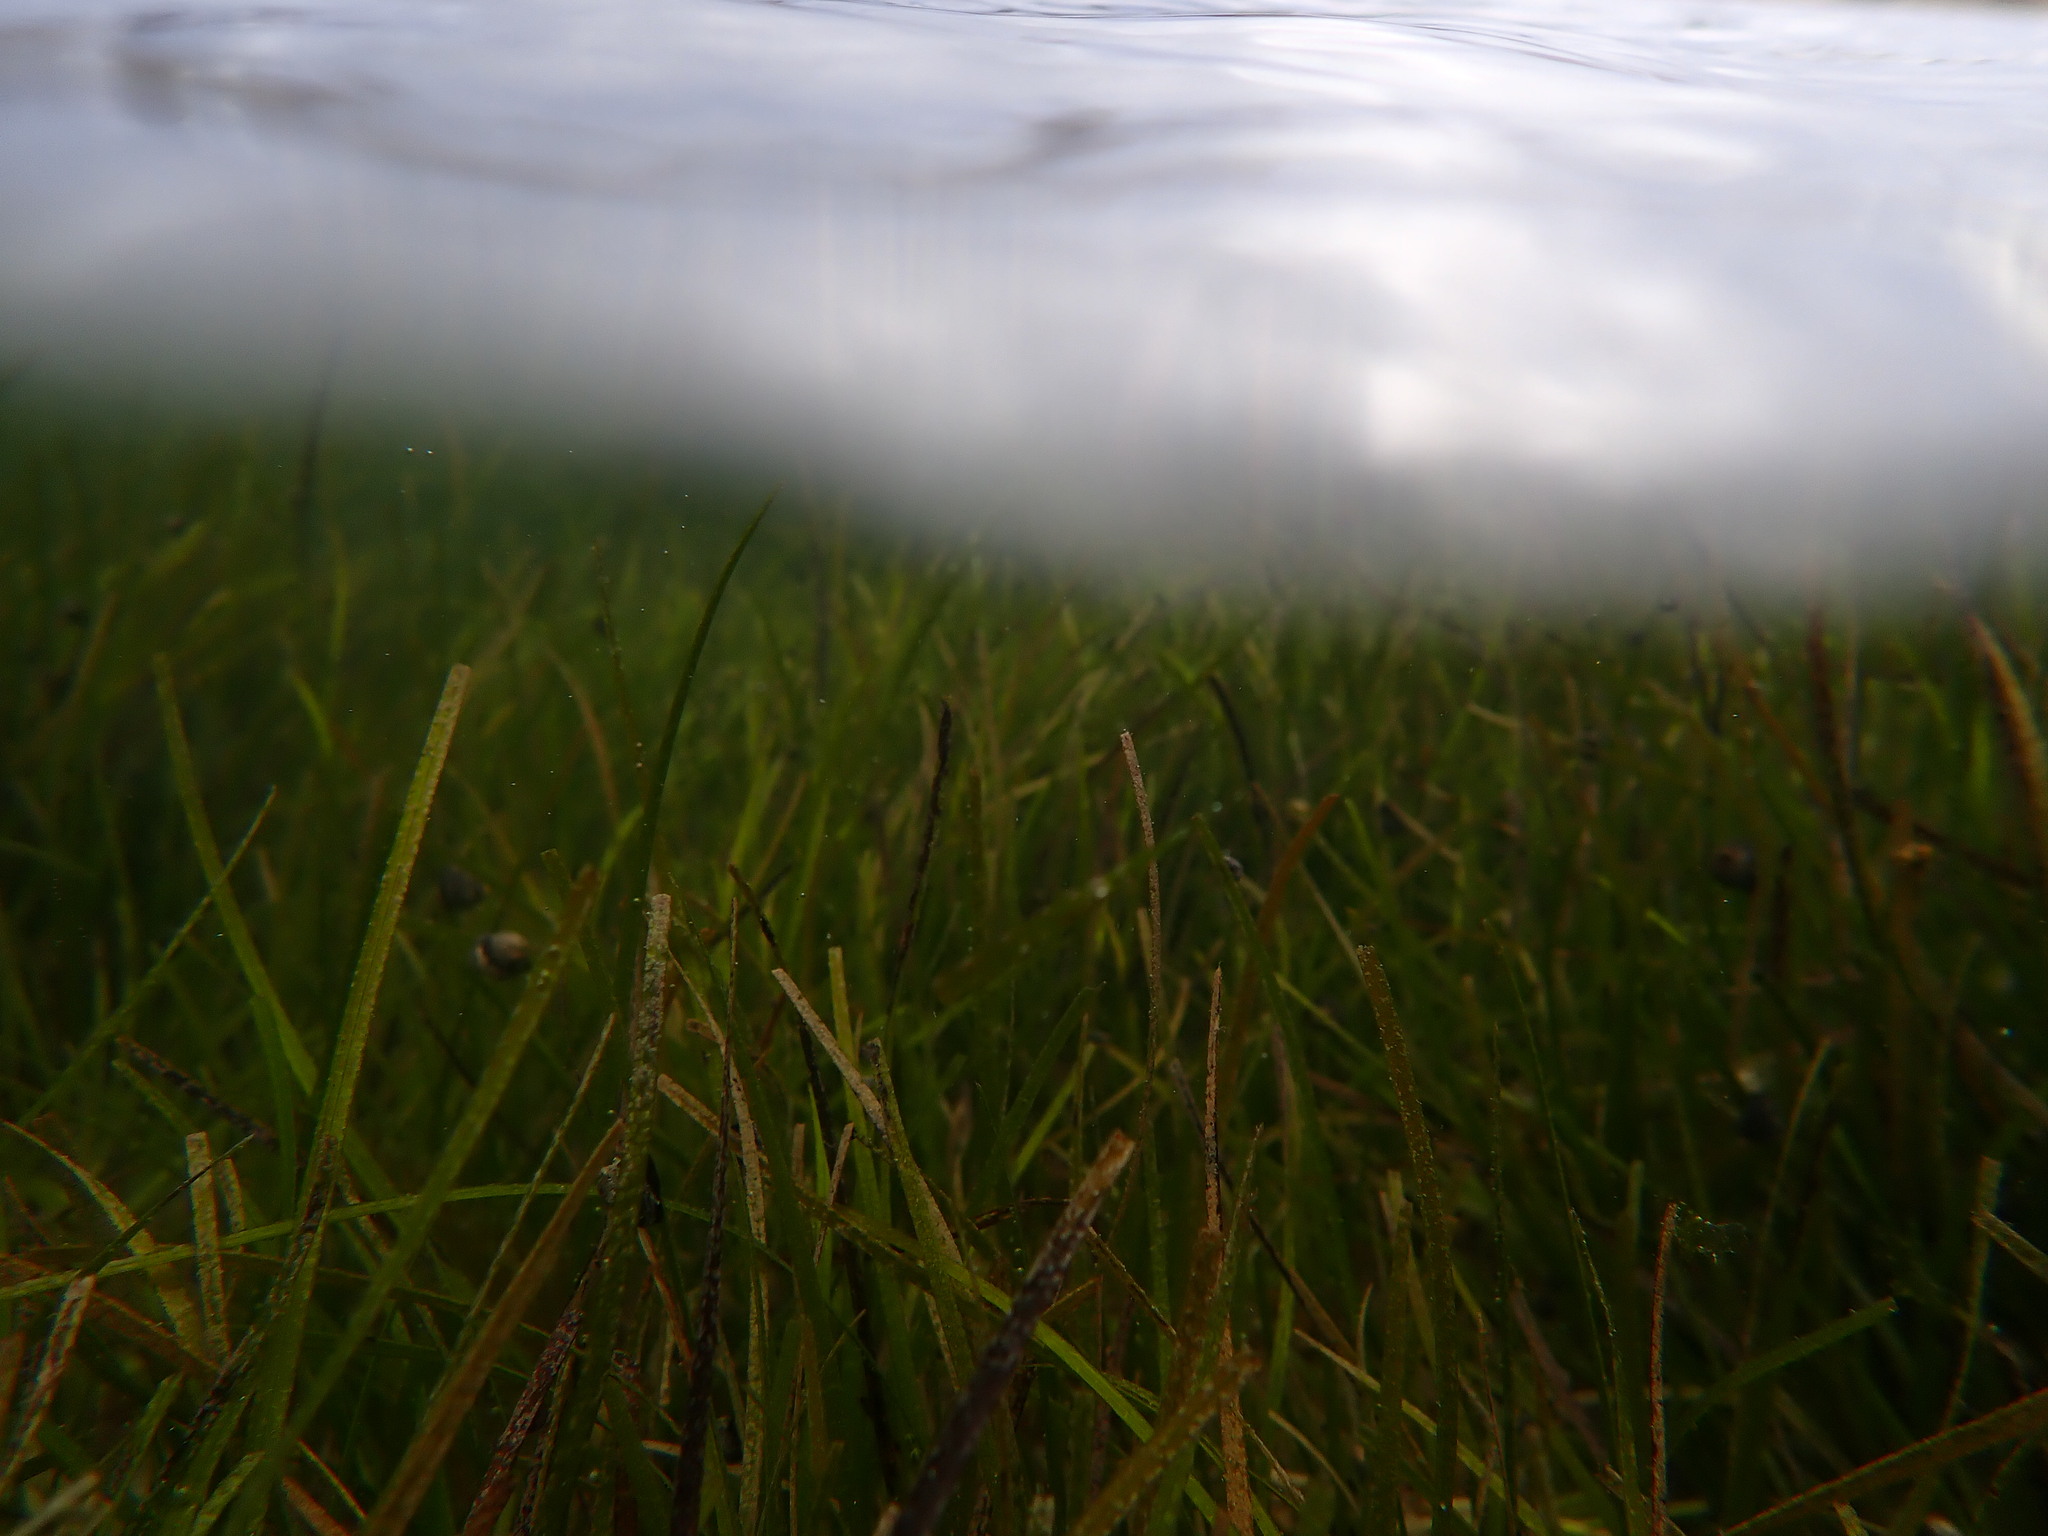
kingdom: Plantae
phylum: Tracheophyta
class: Liliopsida
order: Alismatales
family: Zosteraceae
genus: Zostera
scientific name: Zostera novazelandica
